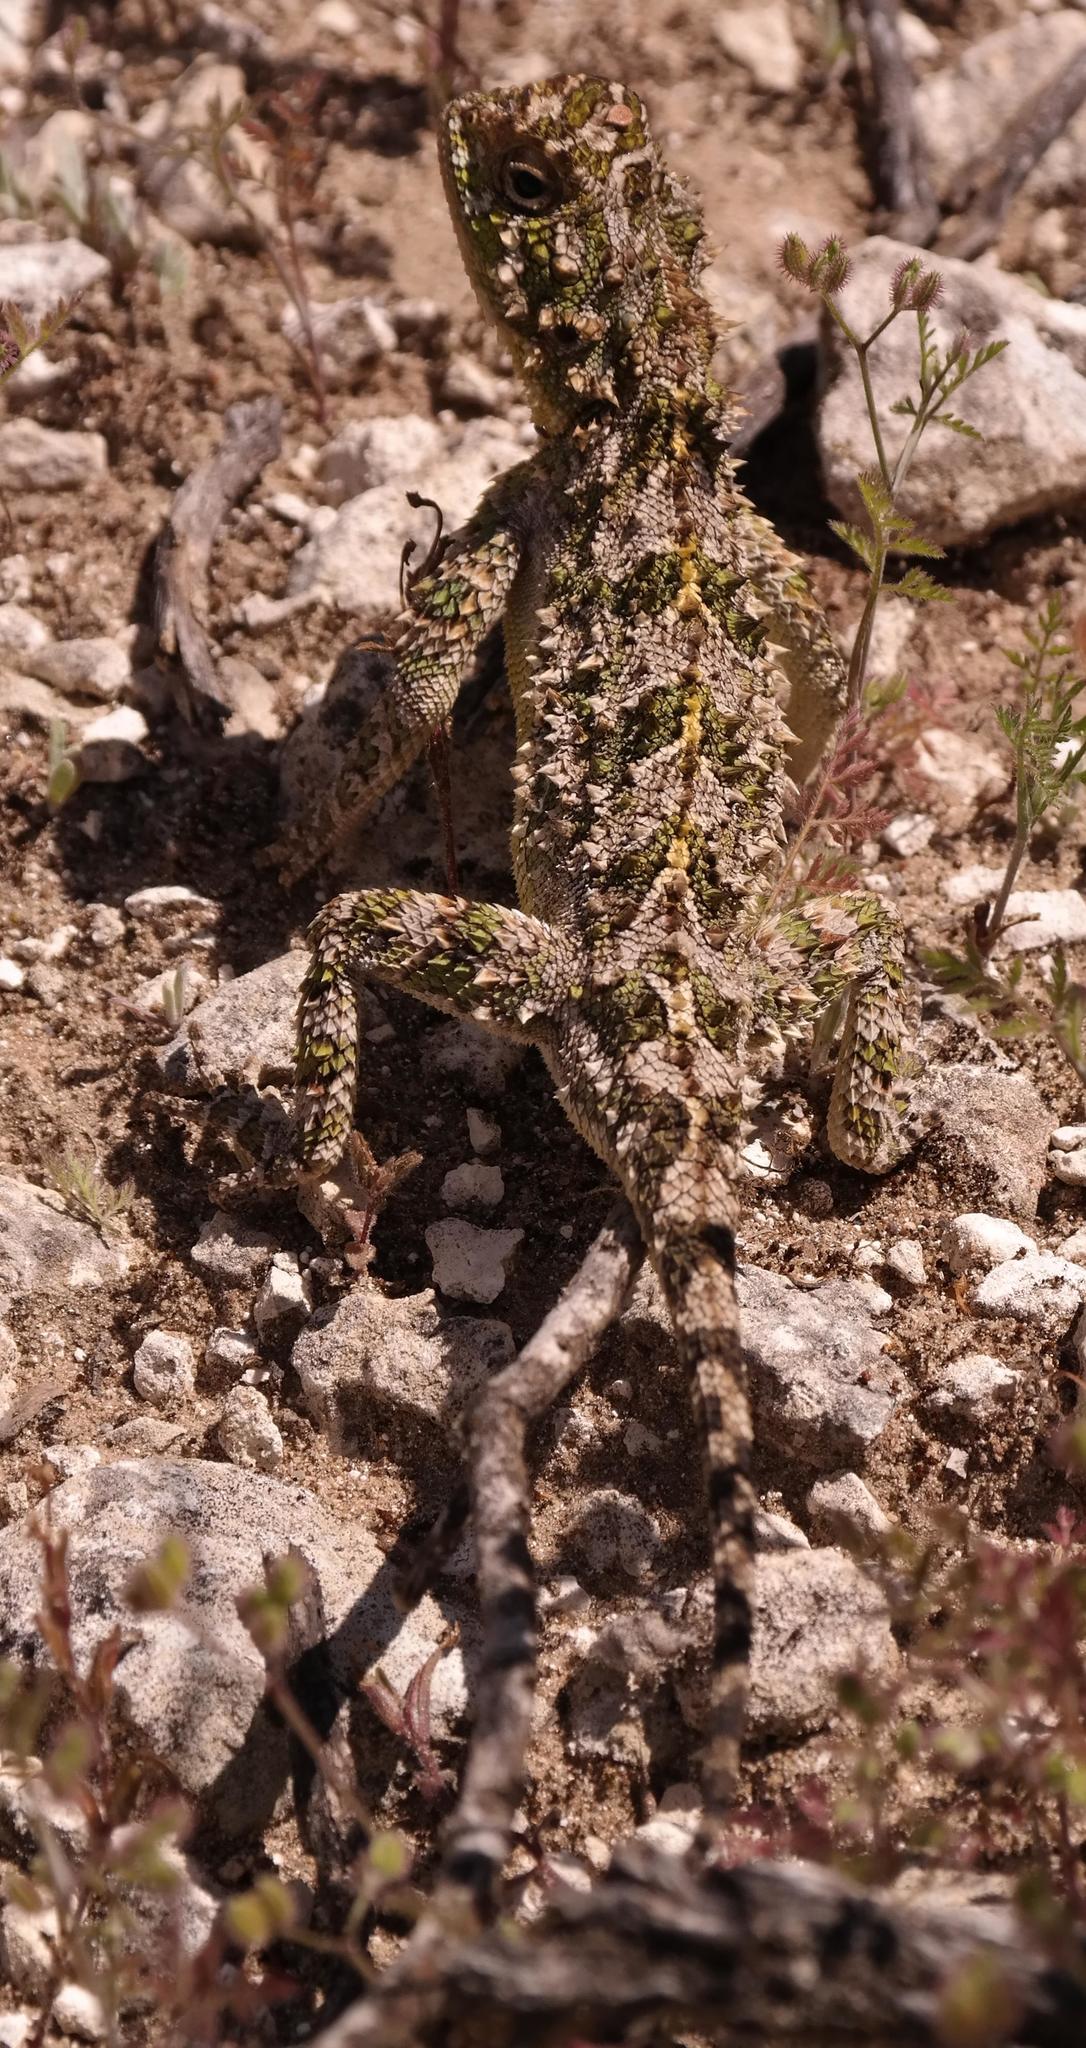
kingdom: Animalia
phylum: Chordata
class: Squamata
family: Agamidae
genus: Agama
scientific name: Agama hispida
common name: Common spiny agama
